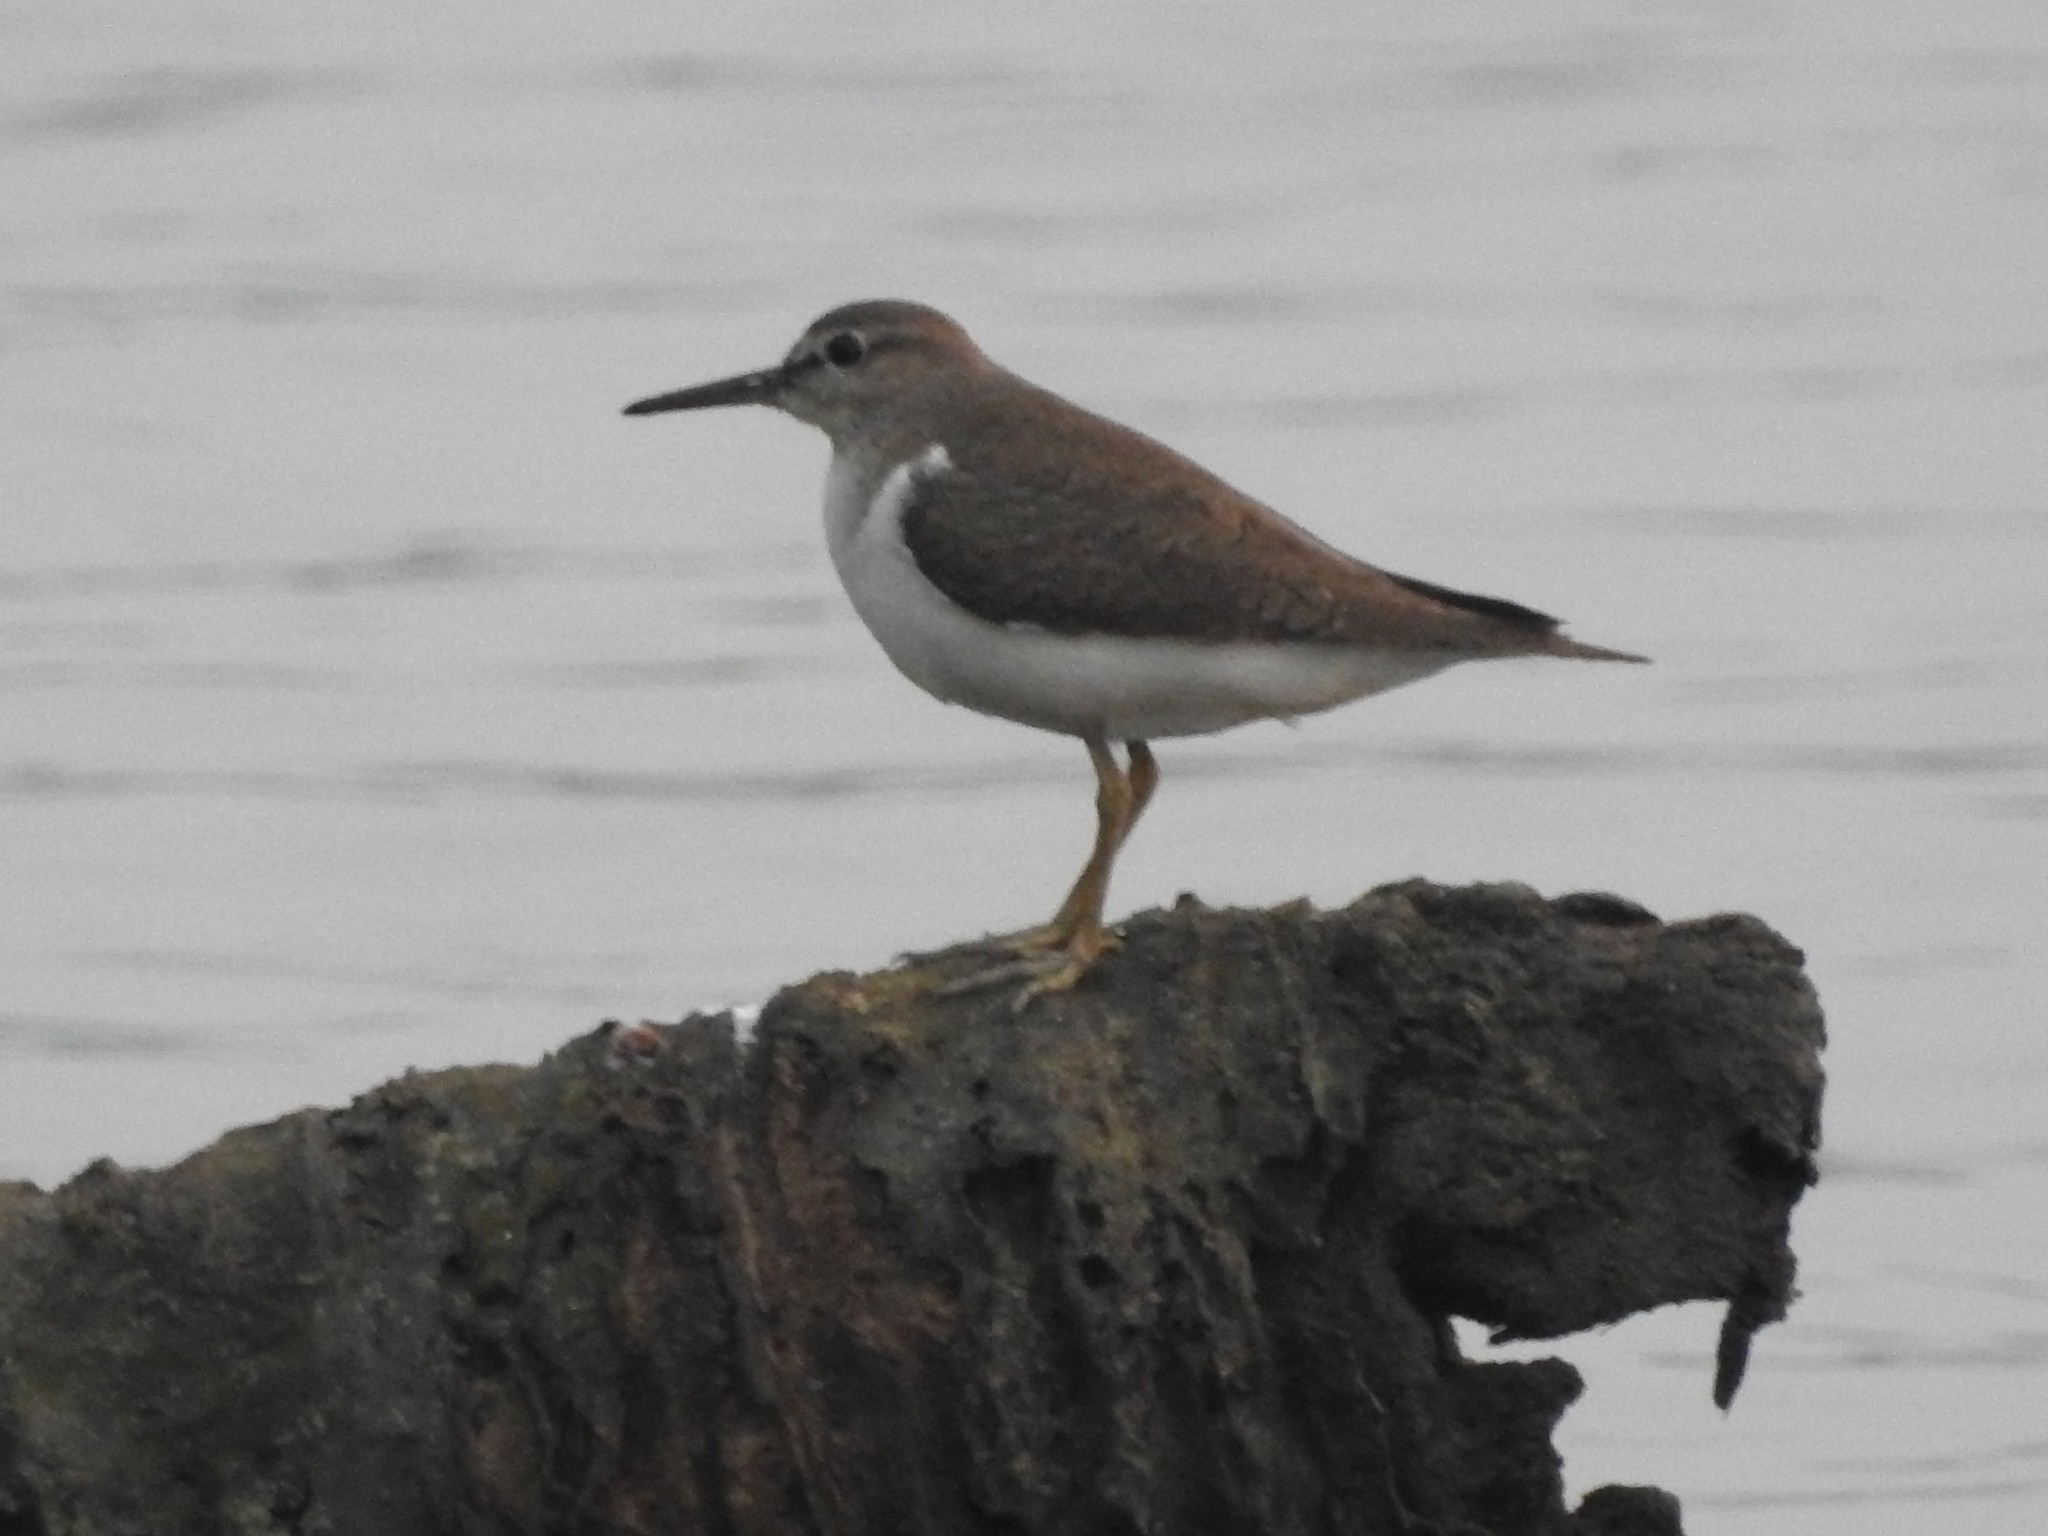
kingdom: Animalia
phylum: Chordata
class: Aves
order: Charadriiformes
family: Scolopacidae
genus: Actitis
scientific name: Actitis hypoleucos
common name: Common sandpiper
